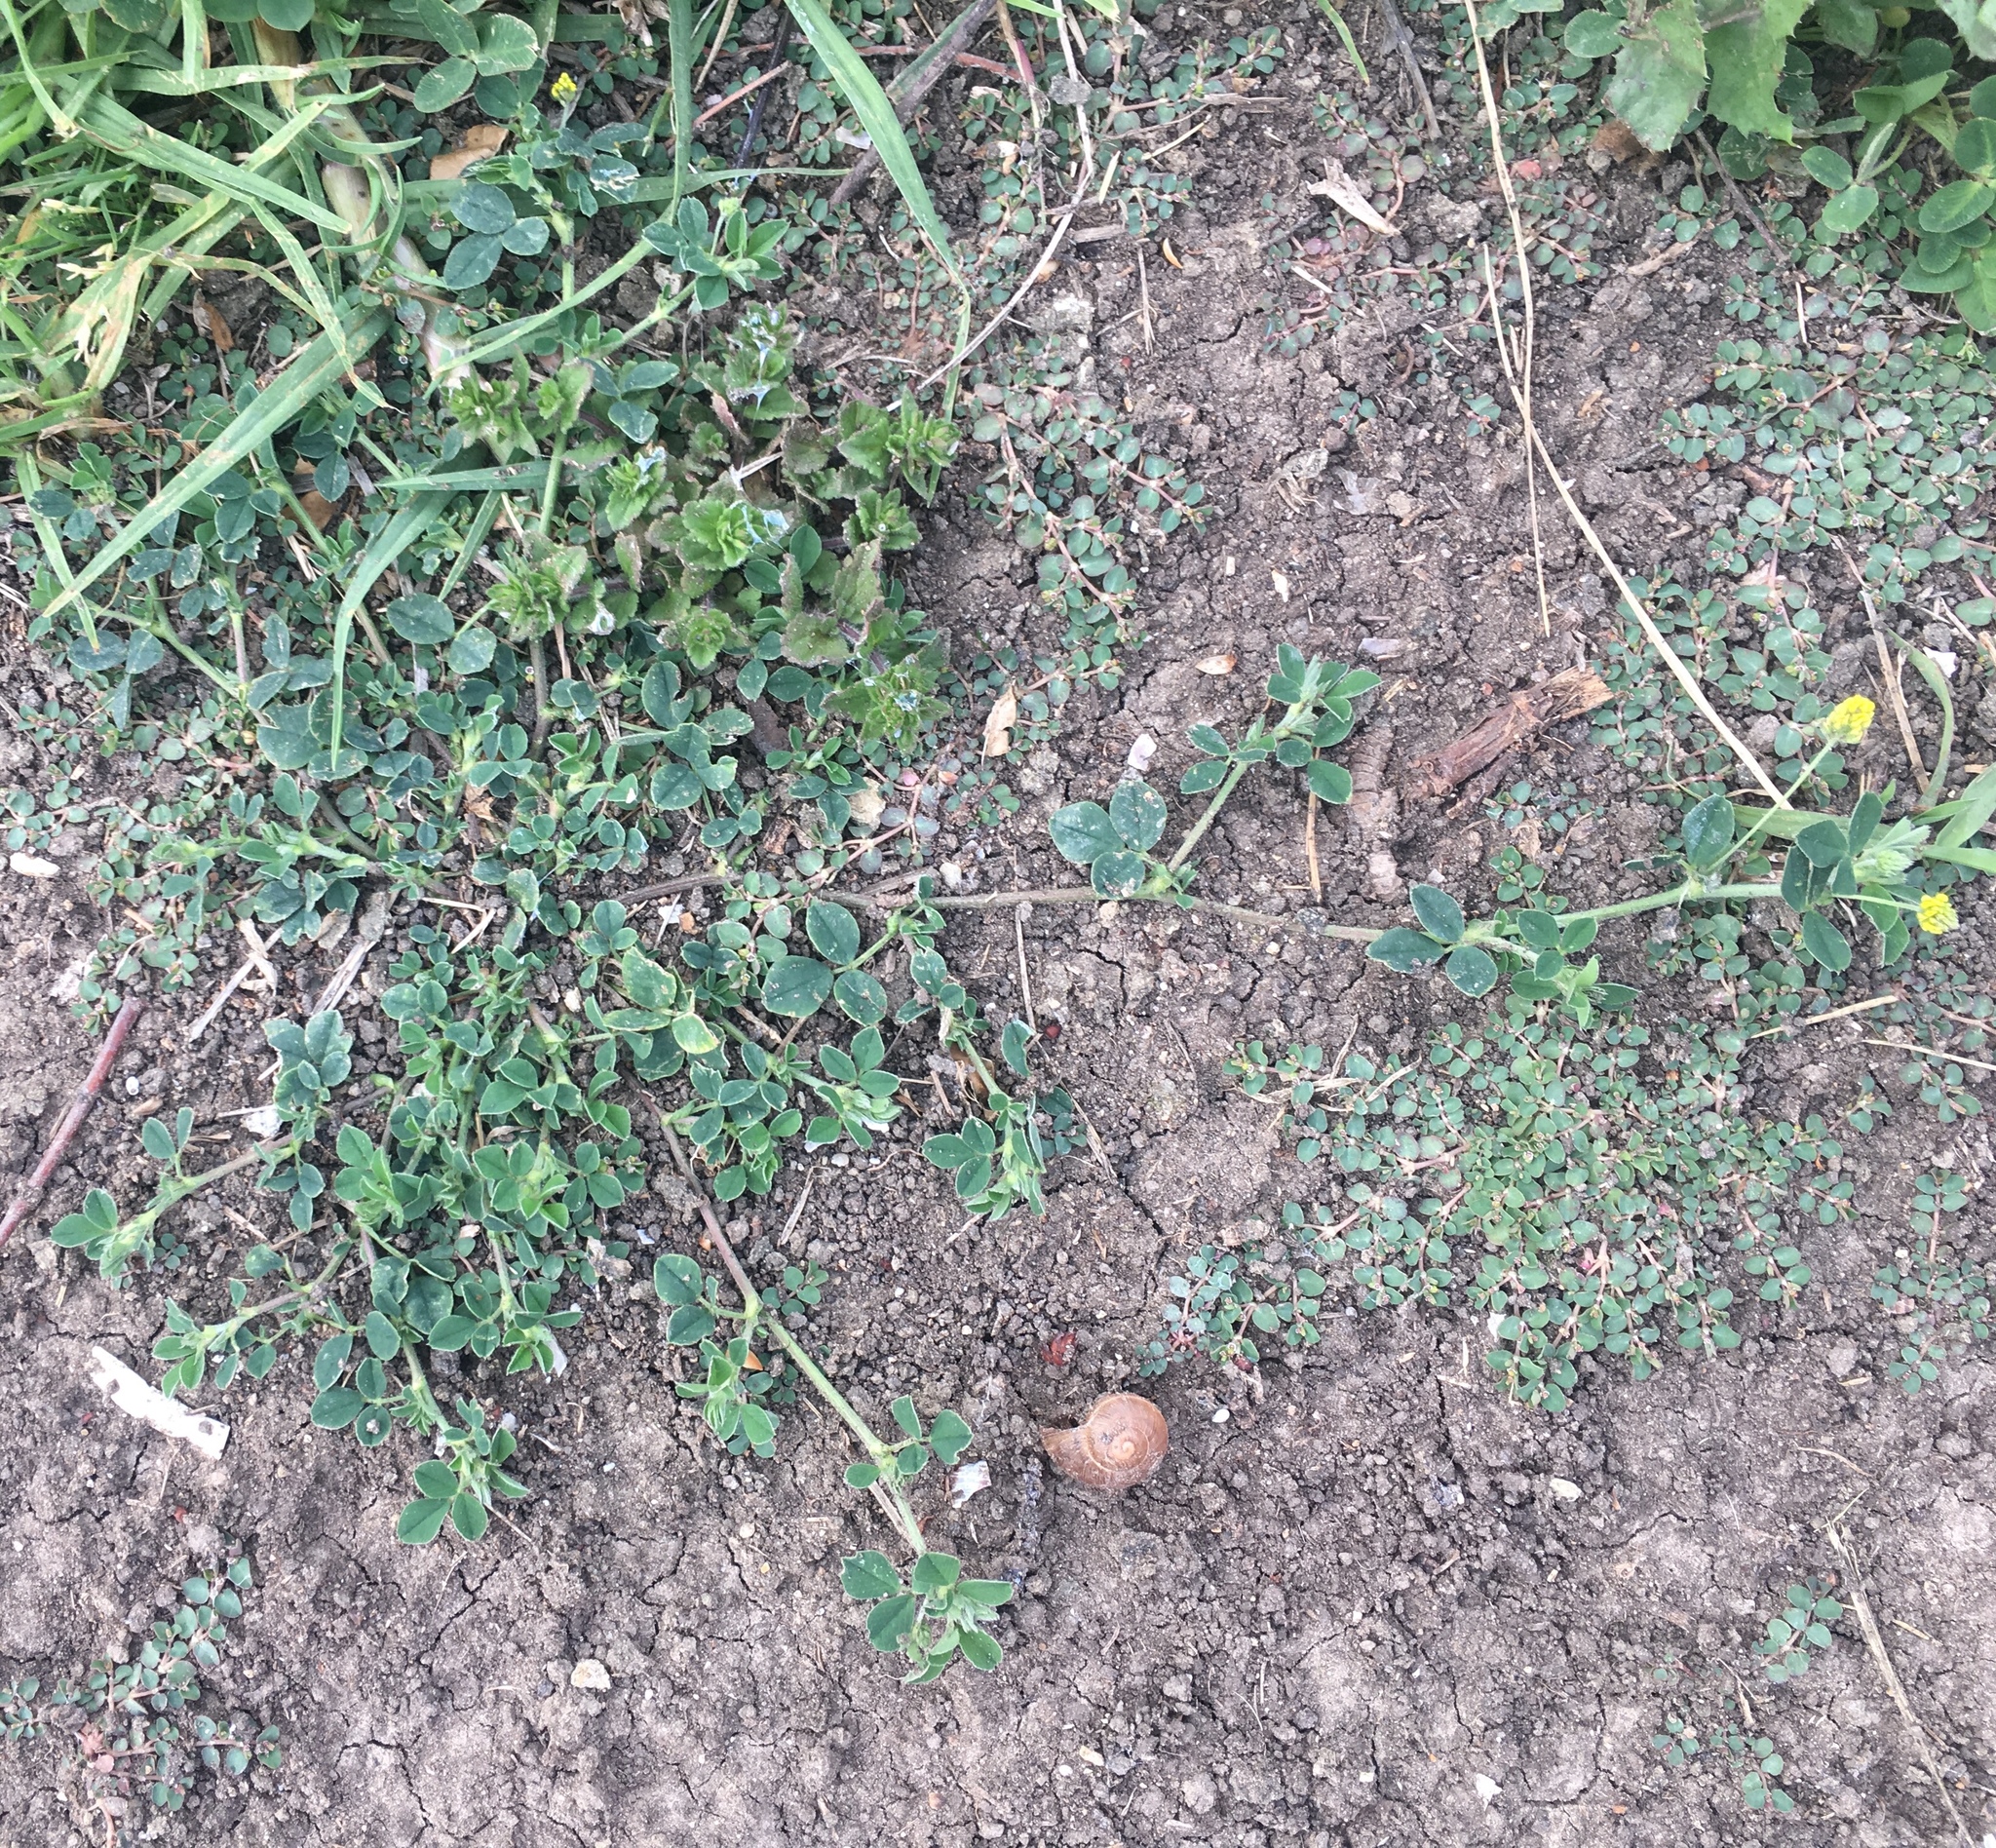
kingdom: Plantae
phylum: Tracheophyta
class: Magnoliopsida
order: Fabales
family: Fabaceae
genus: Medicago
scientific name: Medicago lupulina
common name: Black medick
